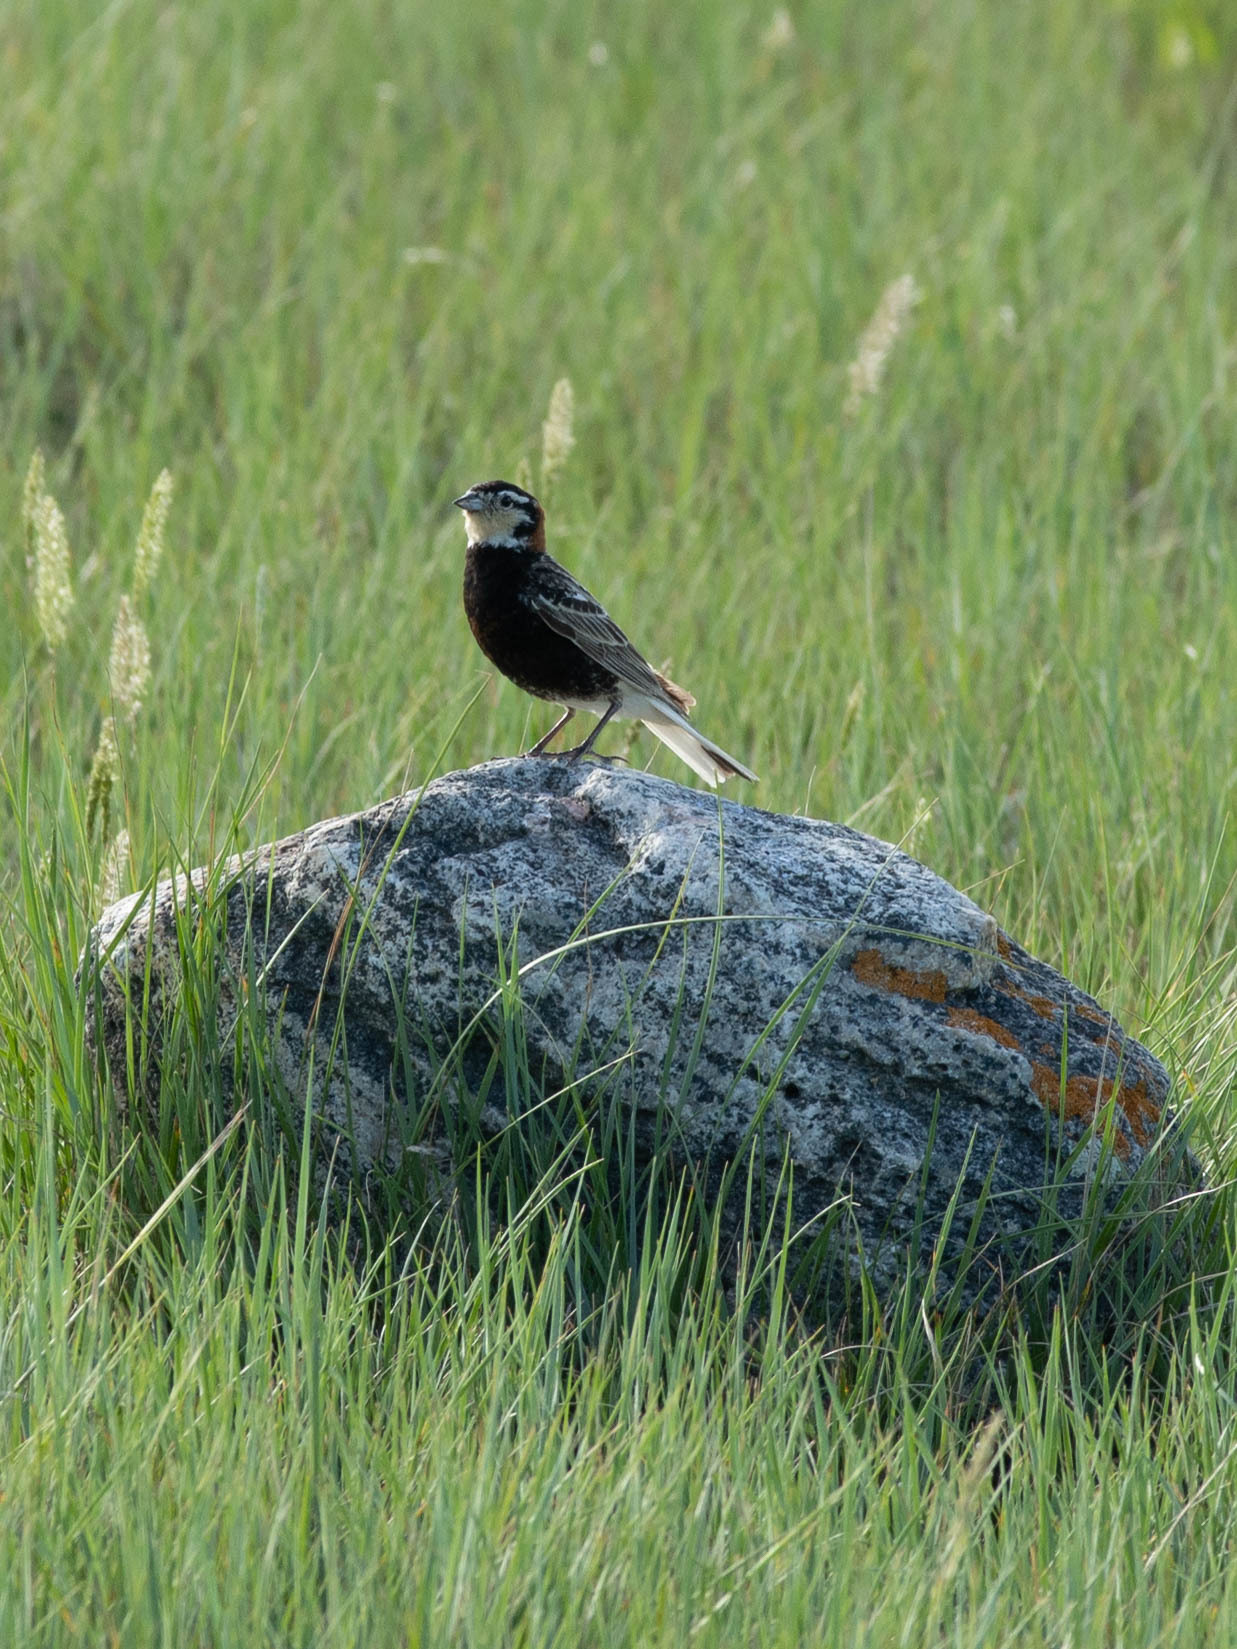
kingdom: Animalia
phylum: Chordata
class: Aves
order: Passeriformes
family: Calcariidae
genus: Calcarius
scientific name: Calcarius ornatus
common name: Chestnut-collared longspur
